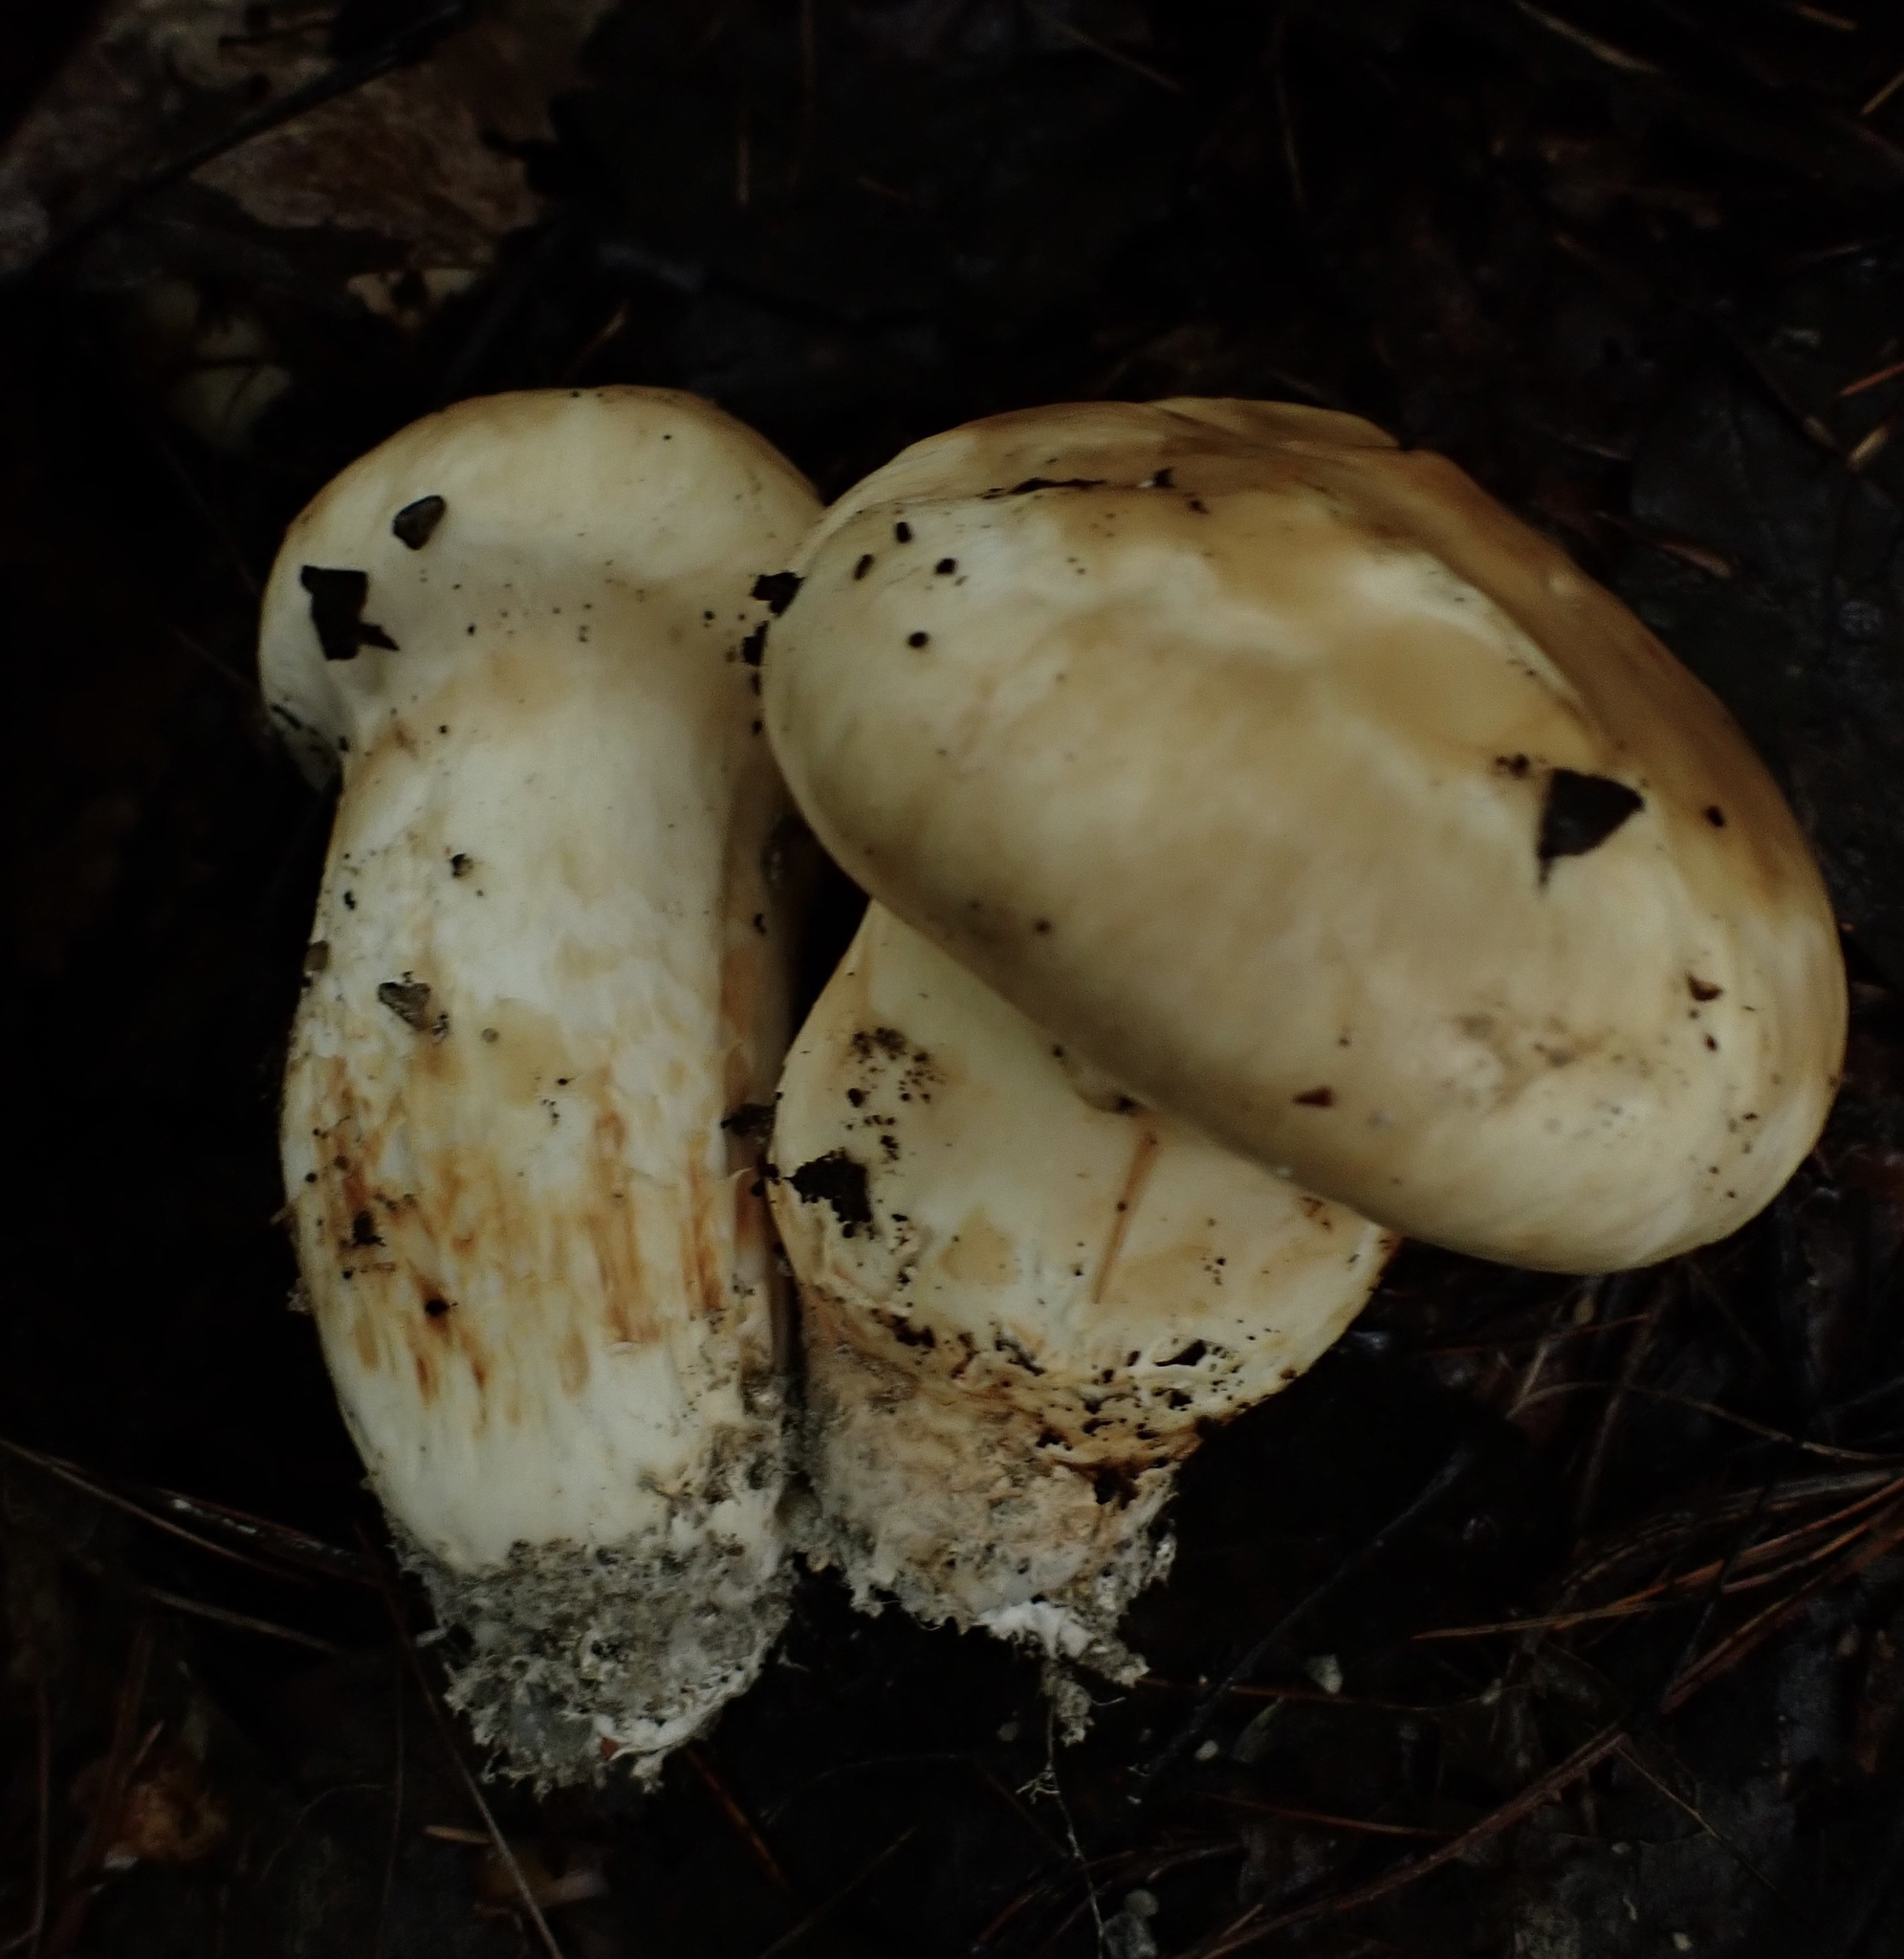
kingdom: Fungi
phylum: Basidiomycota
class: Agaricomycetes
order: Agaricales
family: Tricholomataceae
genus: Tricholoma
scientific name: Tricholoma magnivelare
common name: American matsutake
